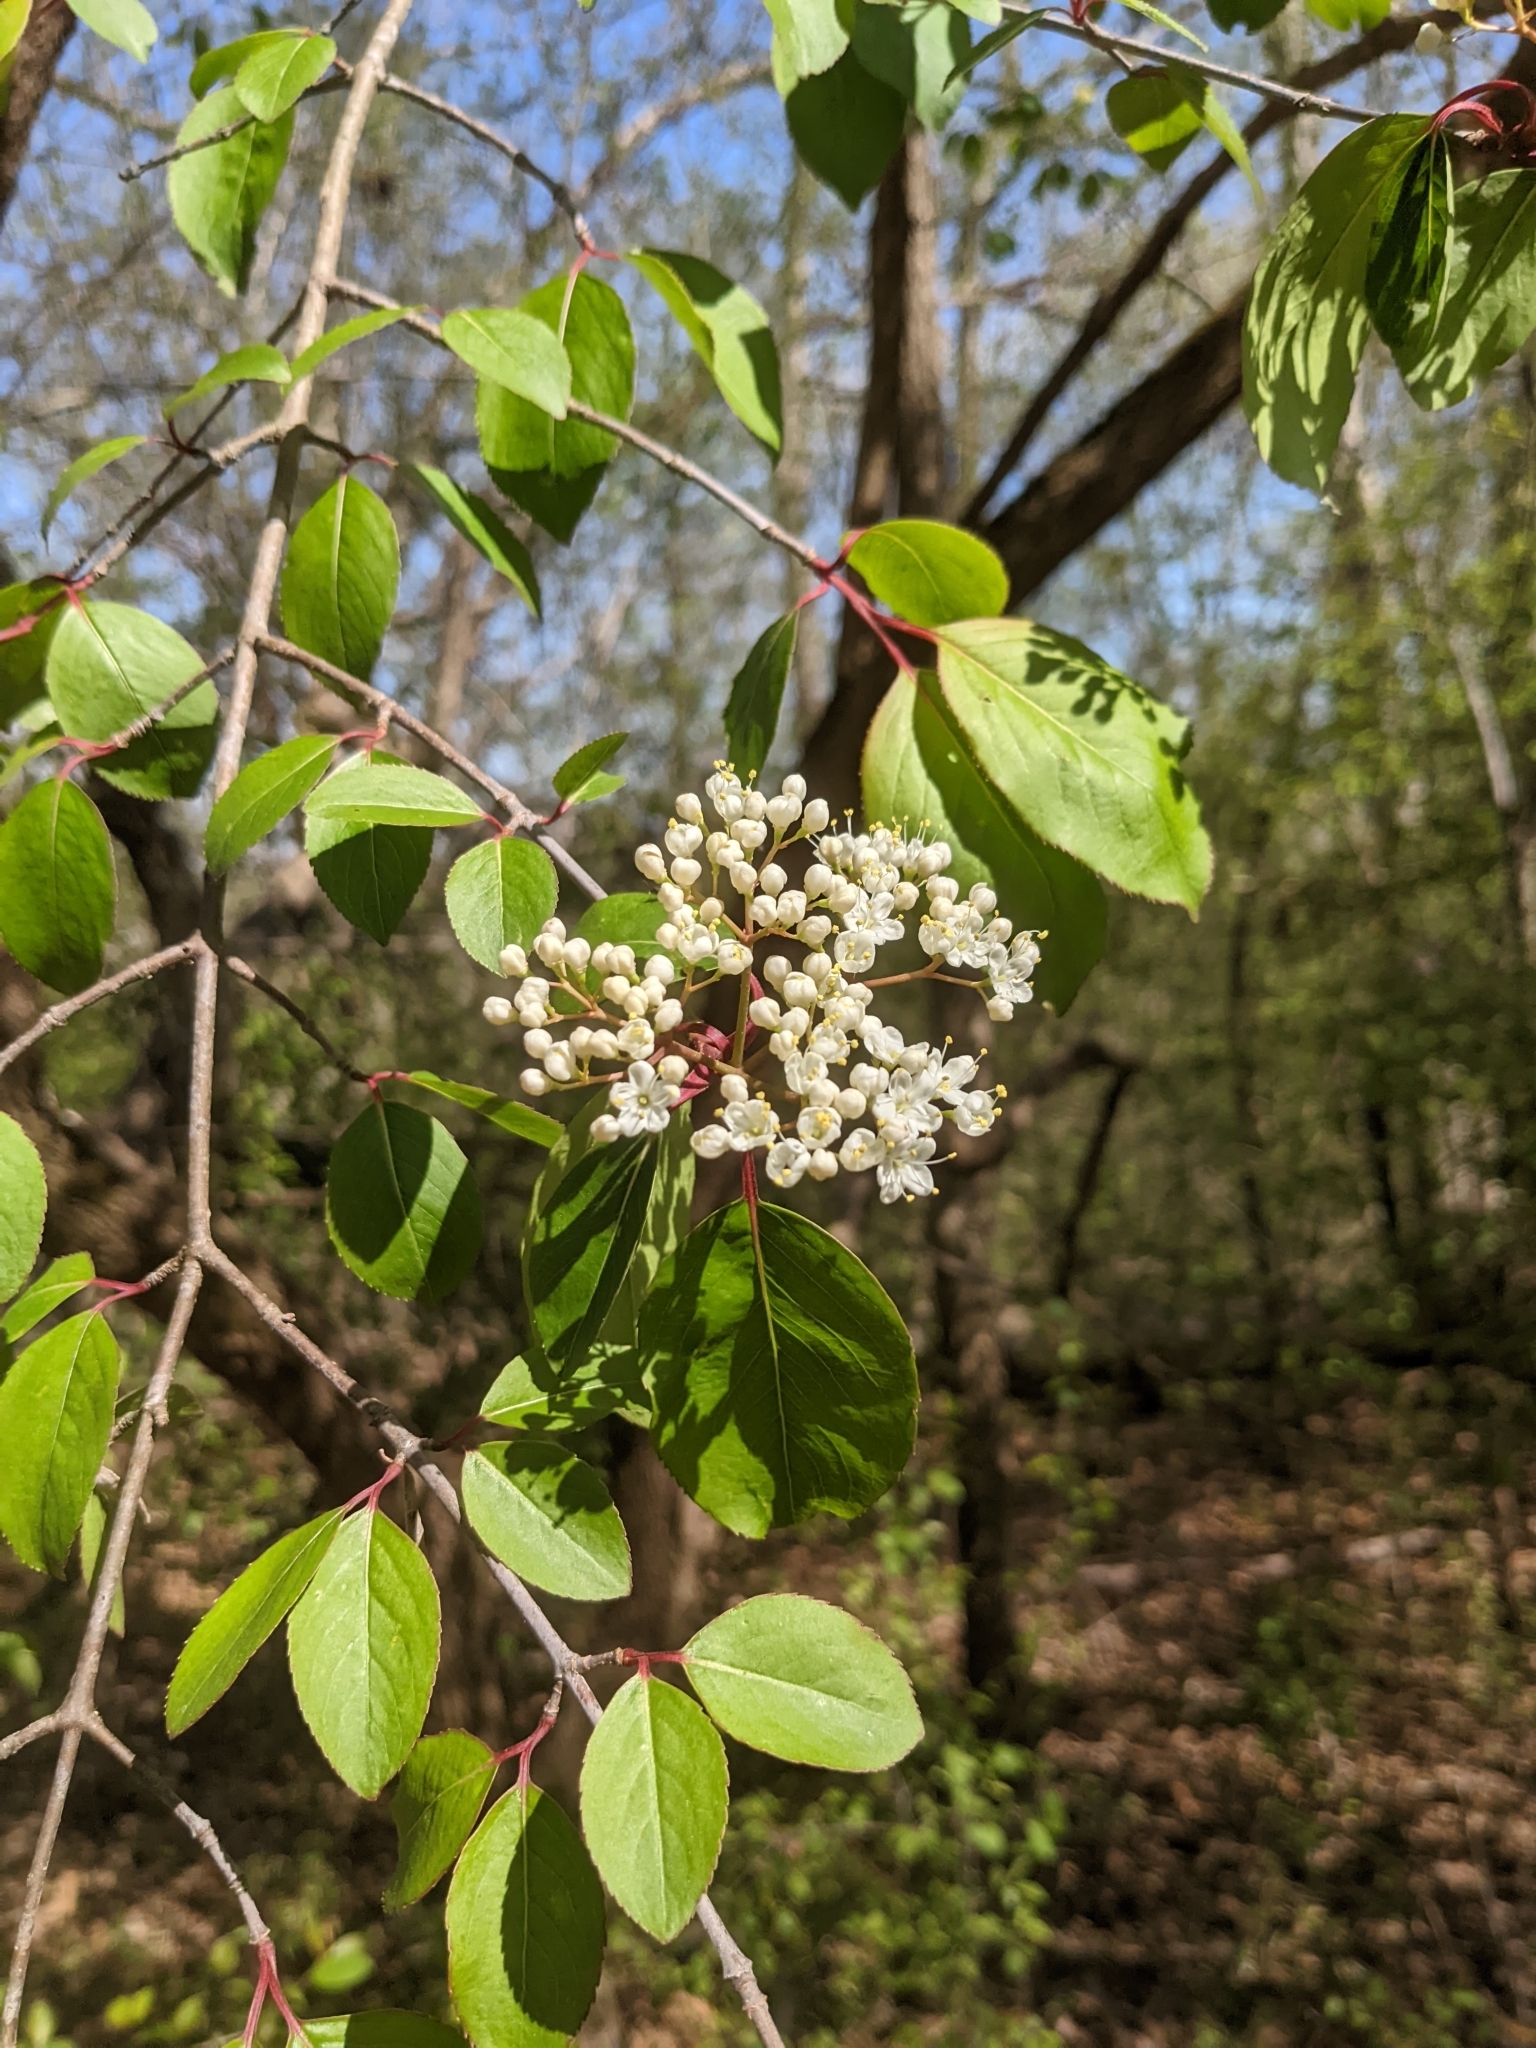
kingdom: Plantae
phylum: Tracheophyta
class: Magnoliopsida
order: Dipsacales
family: Viburnaceae
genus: Viburnum
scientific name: Viburnum prunifolium
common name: Black haw
